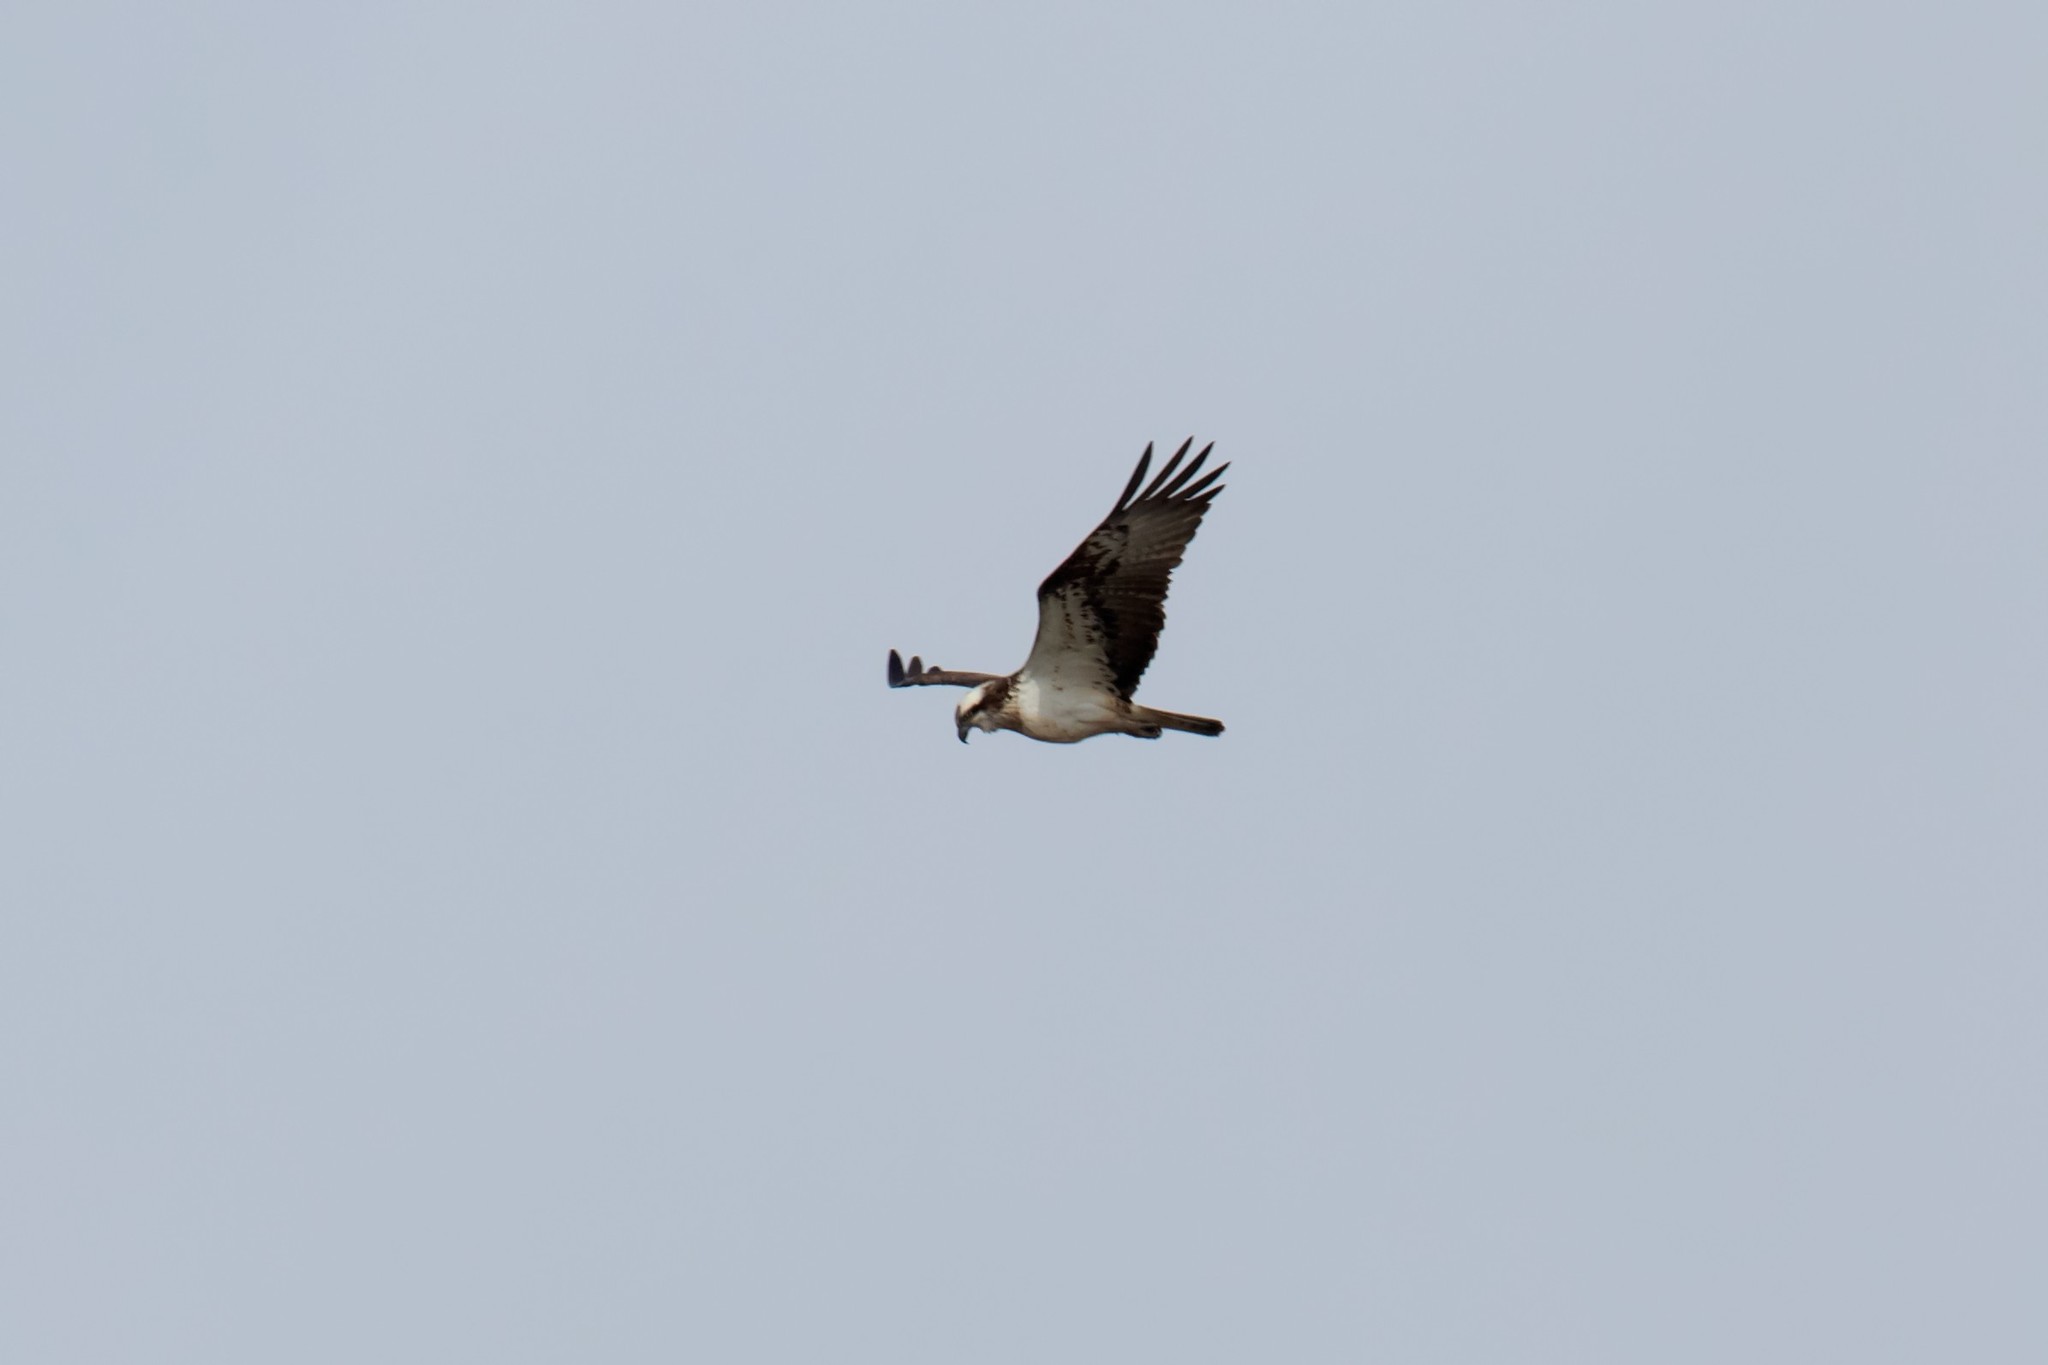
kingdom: Animalia
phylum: Chordata
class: Aves
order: Accipitriformes
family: Pandionidae
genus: Pandion
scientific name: Pandion haliaetus
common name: Osprey
